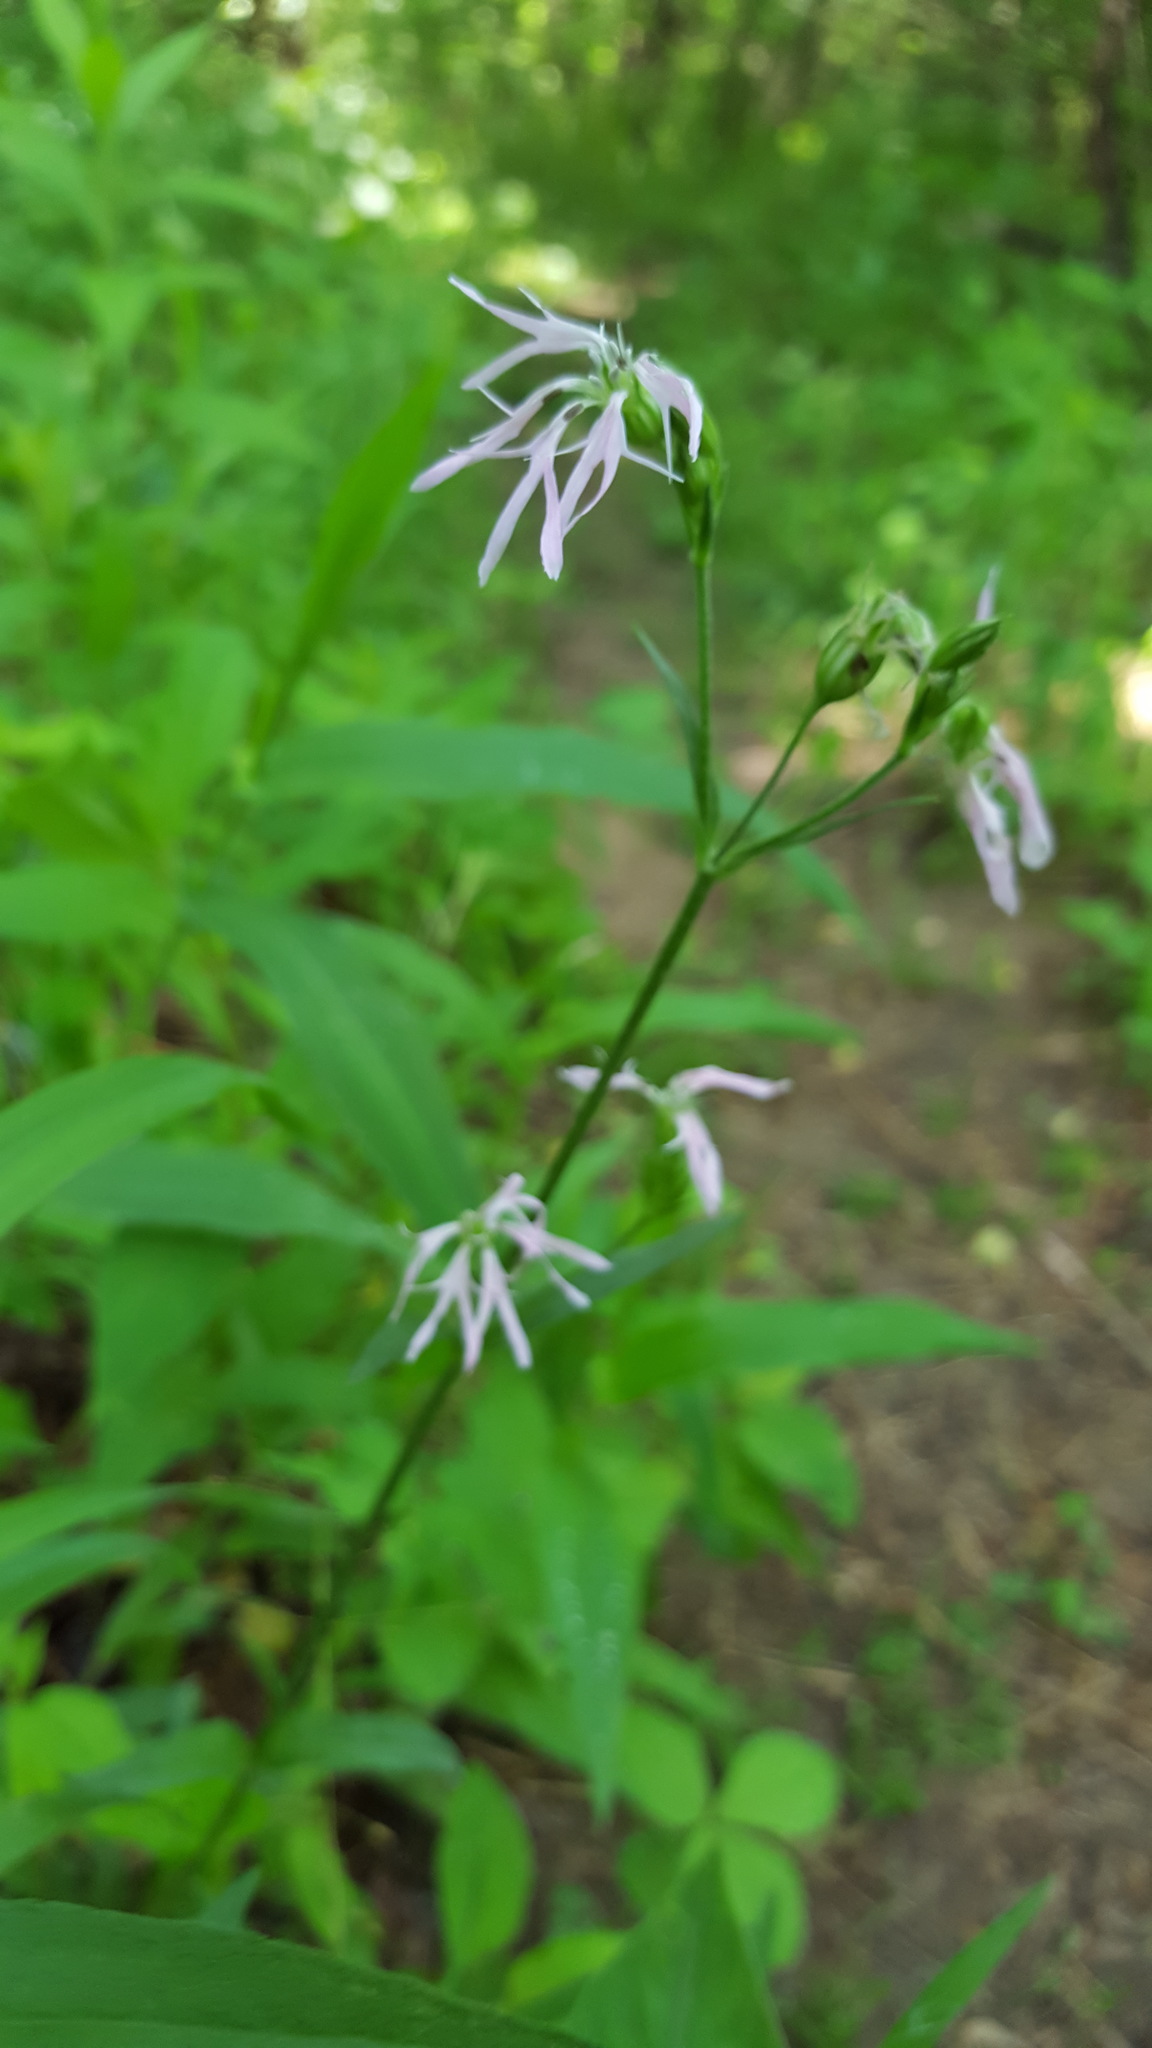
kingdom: Plantae
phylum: Tracheophyta
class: Magnoliopsida
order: Caryophyllales
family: Caryophyllaceae
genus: Silene
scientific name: Silene flos-cuculi
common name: Ragged-robin
